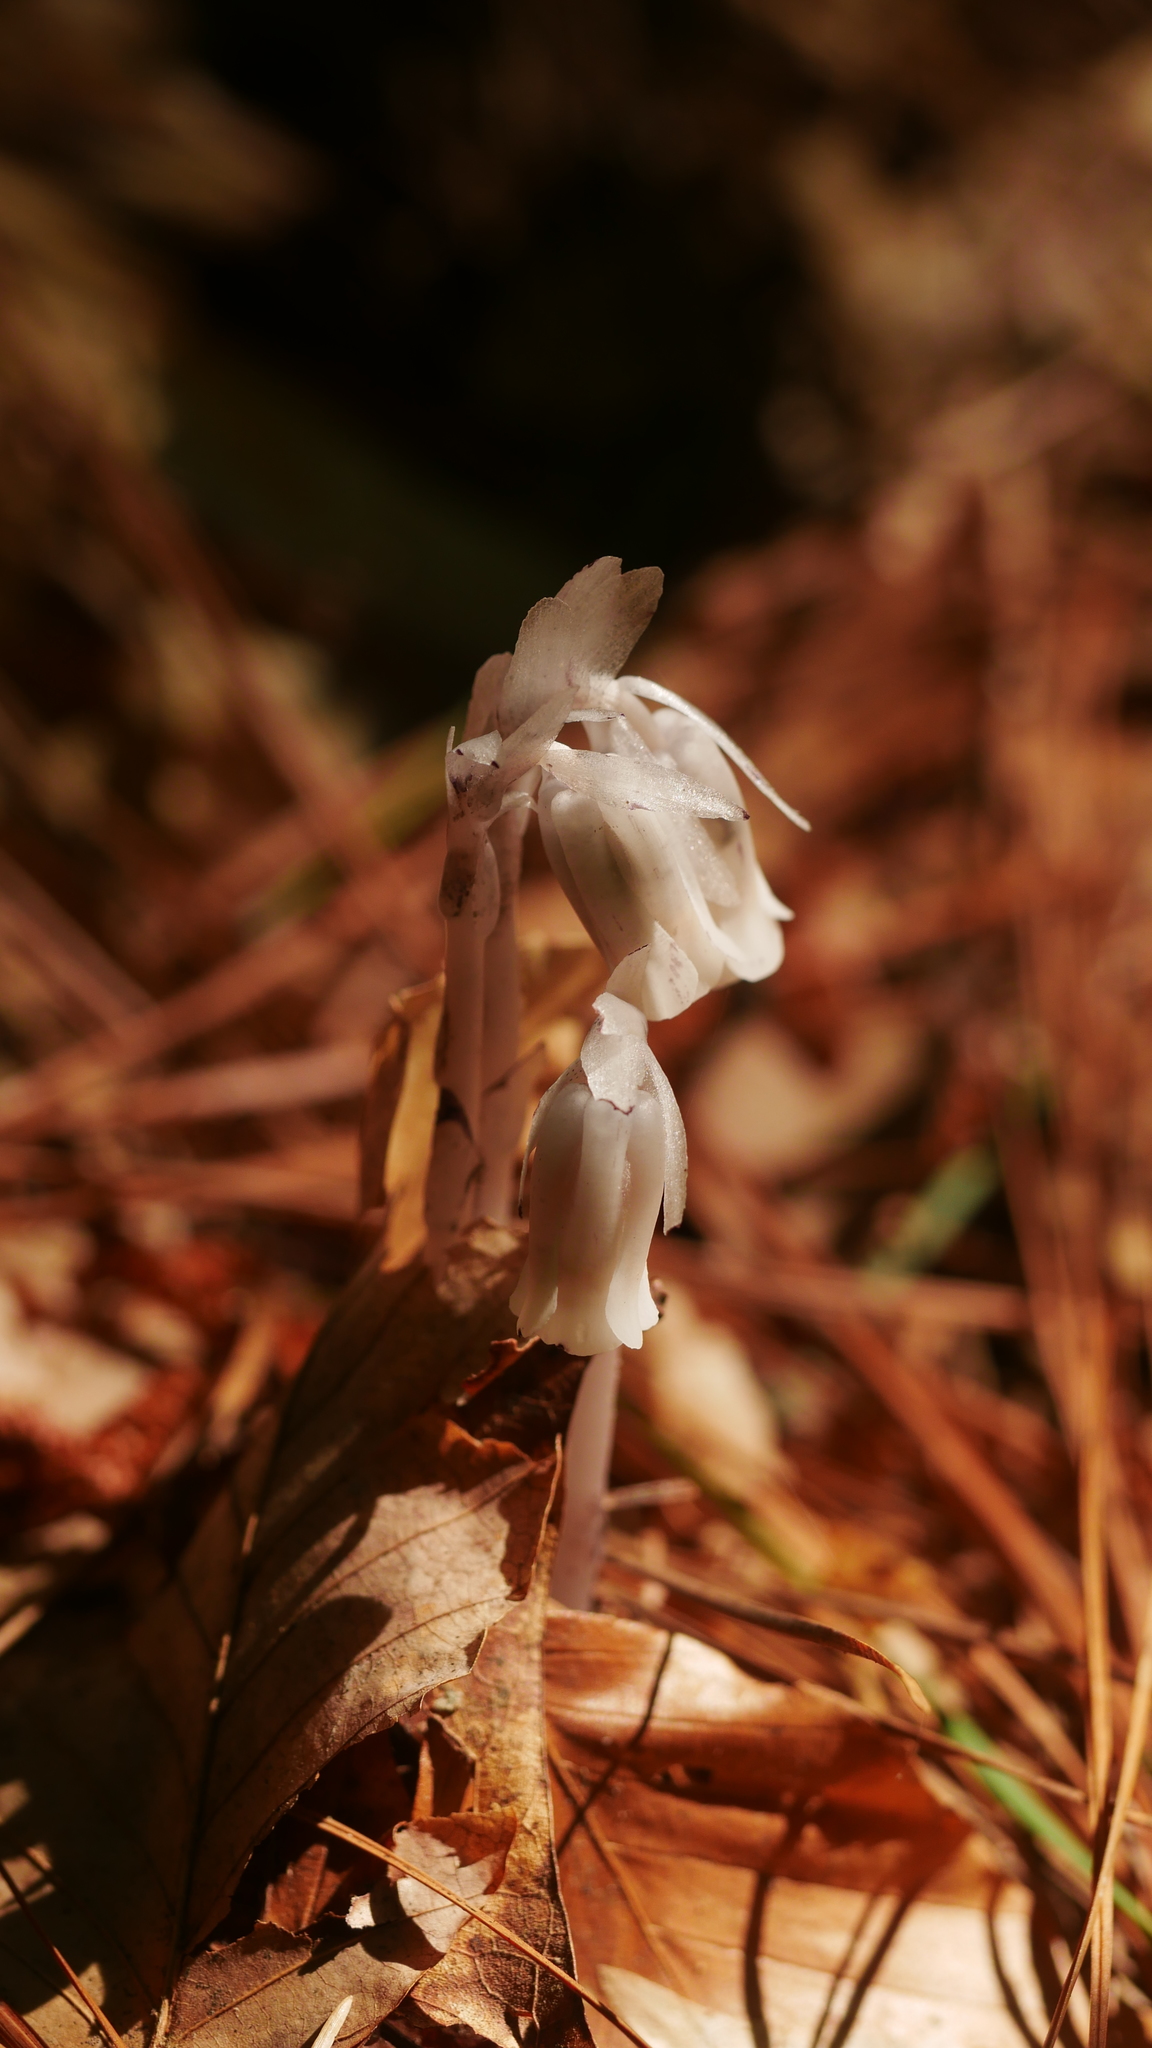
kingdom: Plantae
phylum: Tracheophyta
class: Magnoliopsida
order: Ericales
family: Ericaceae
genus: Monotropa
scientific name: Monotropa uniflora
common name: Convulsion root
